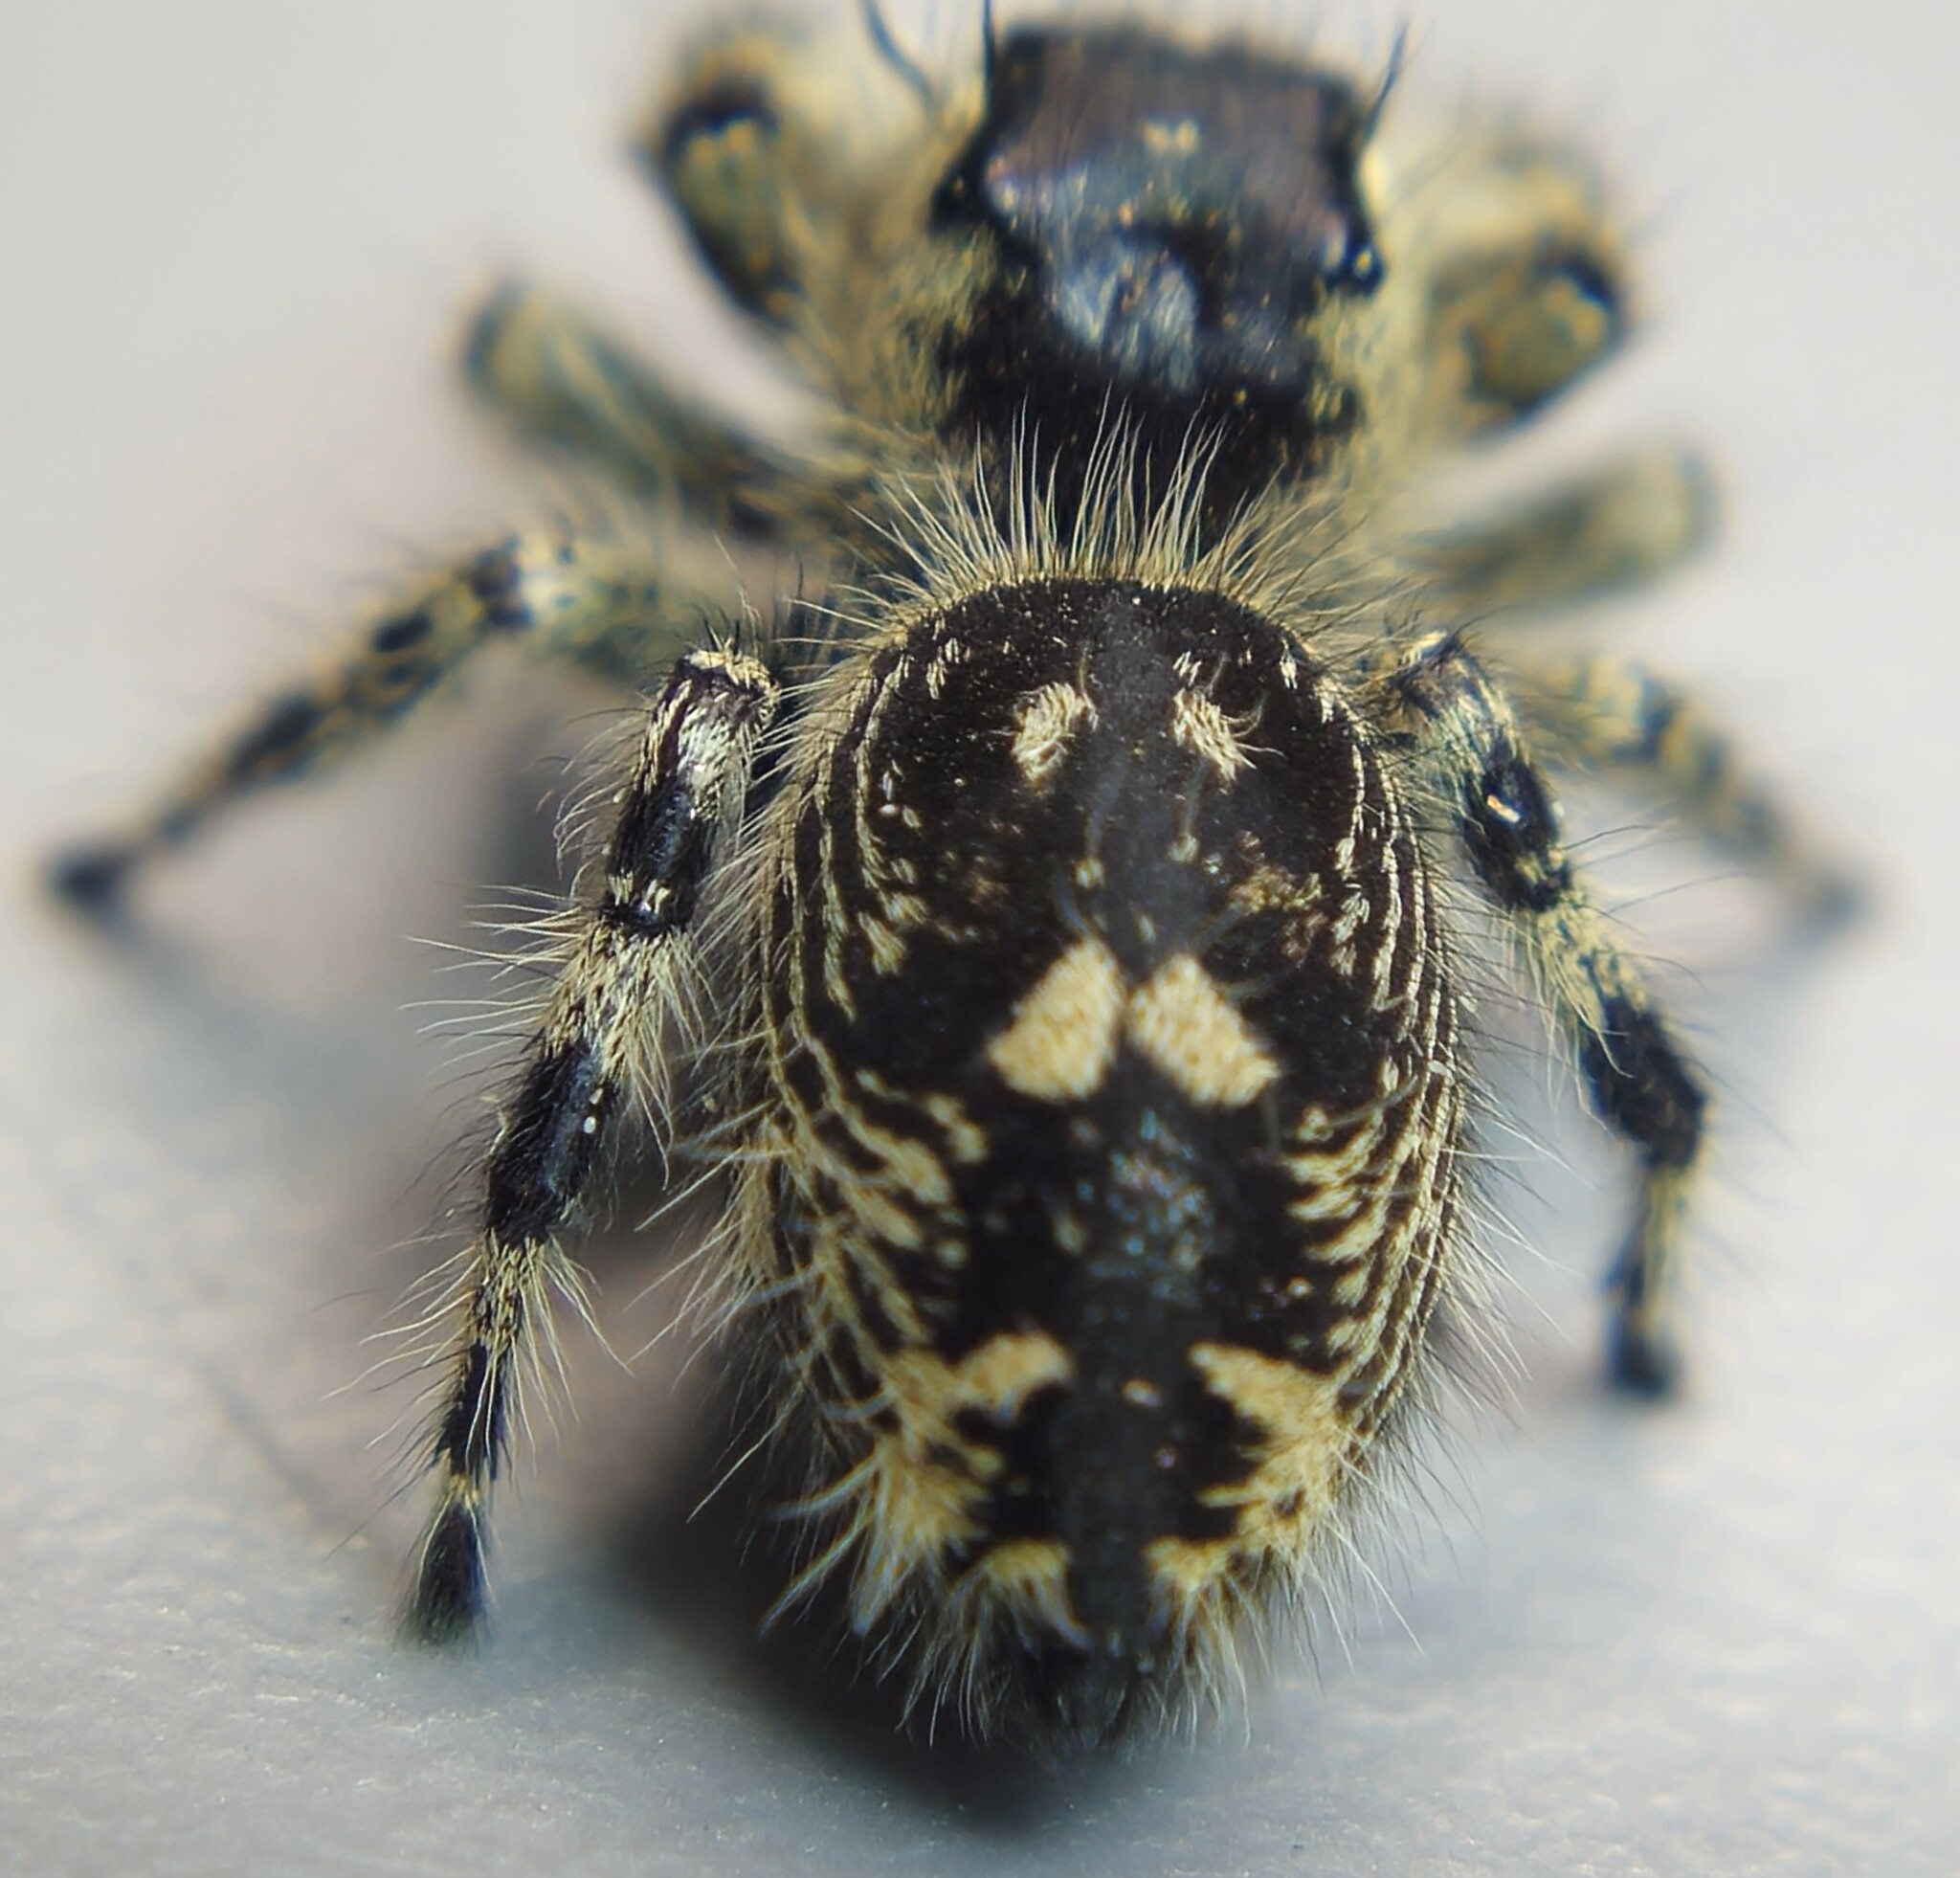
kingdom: Animalia
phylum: Arthropoda
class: Arachnida
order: Araneae
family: Salticidae
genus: Phidippus
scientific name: Phidippus otiosus
